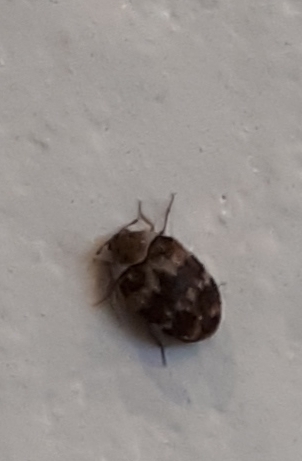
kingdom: Animalia
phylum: Arthropoda
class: Insecta
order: Coleoptera
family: Dermestidae
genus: Anthrenus
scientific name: Anthrenus fuscus
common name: Mill carpet beetle
